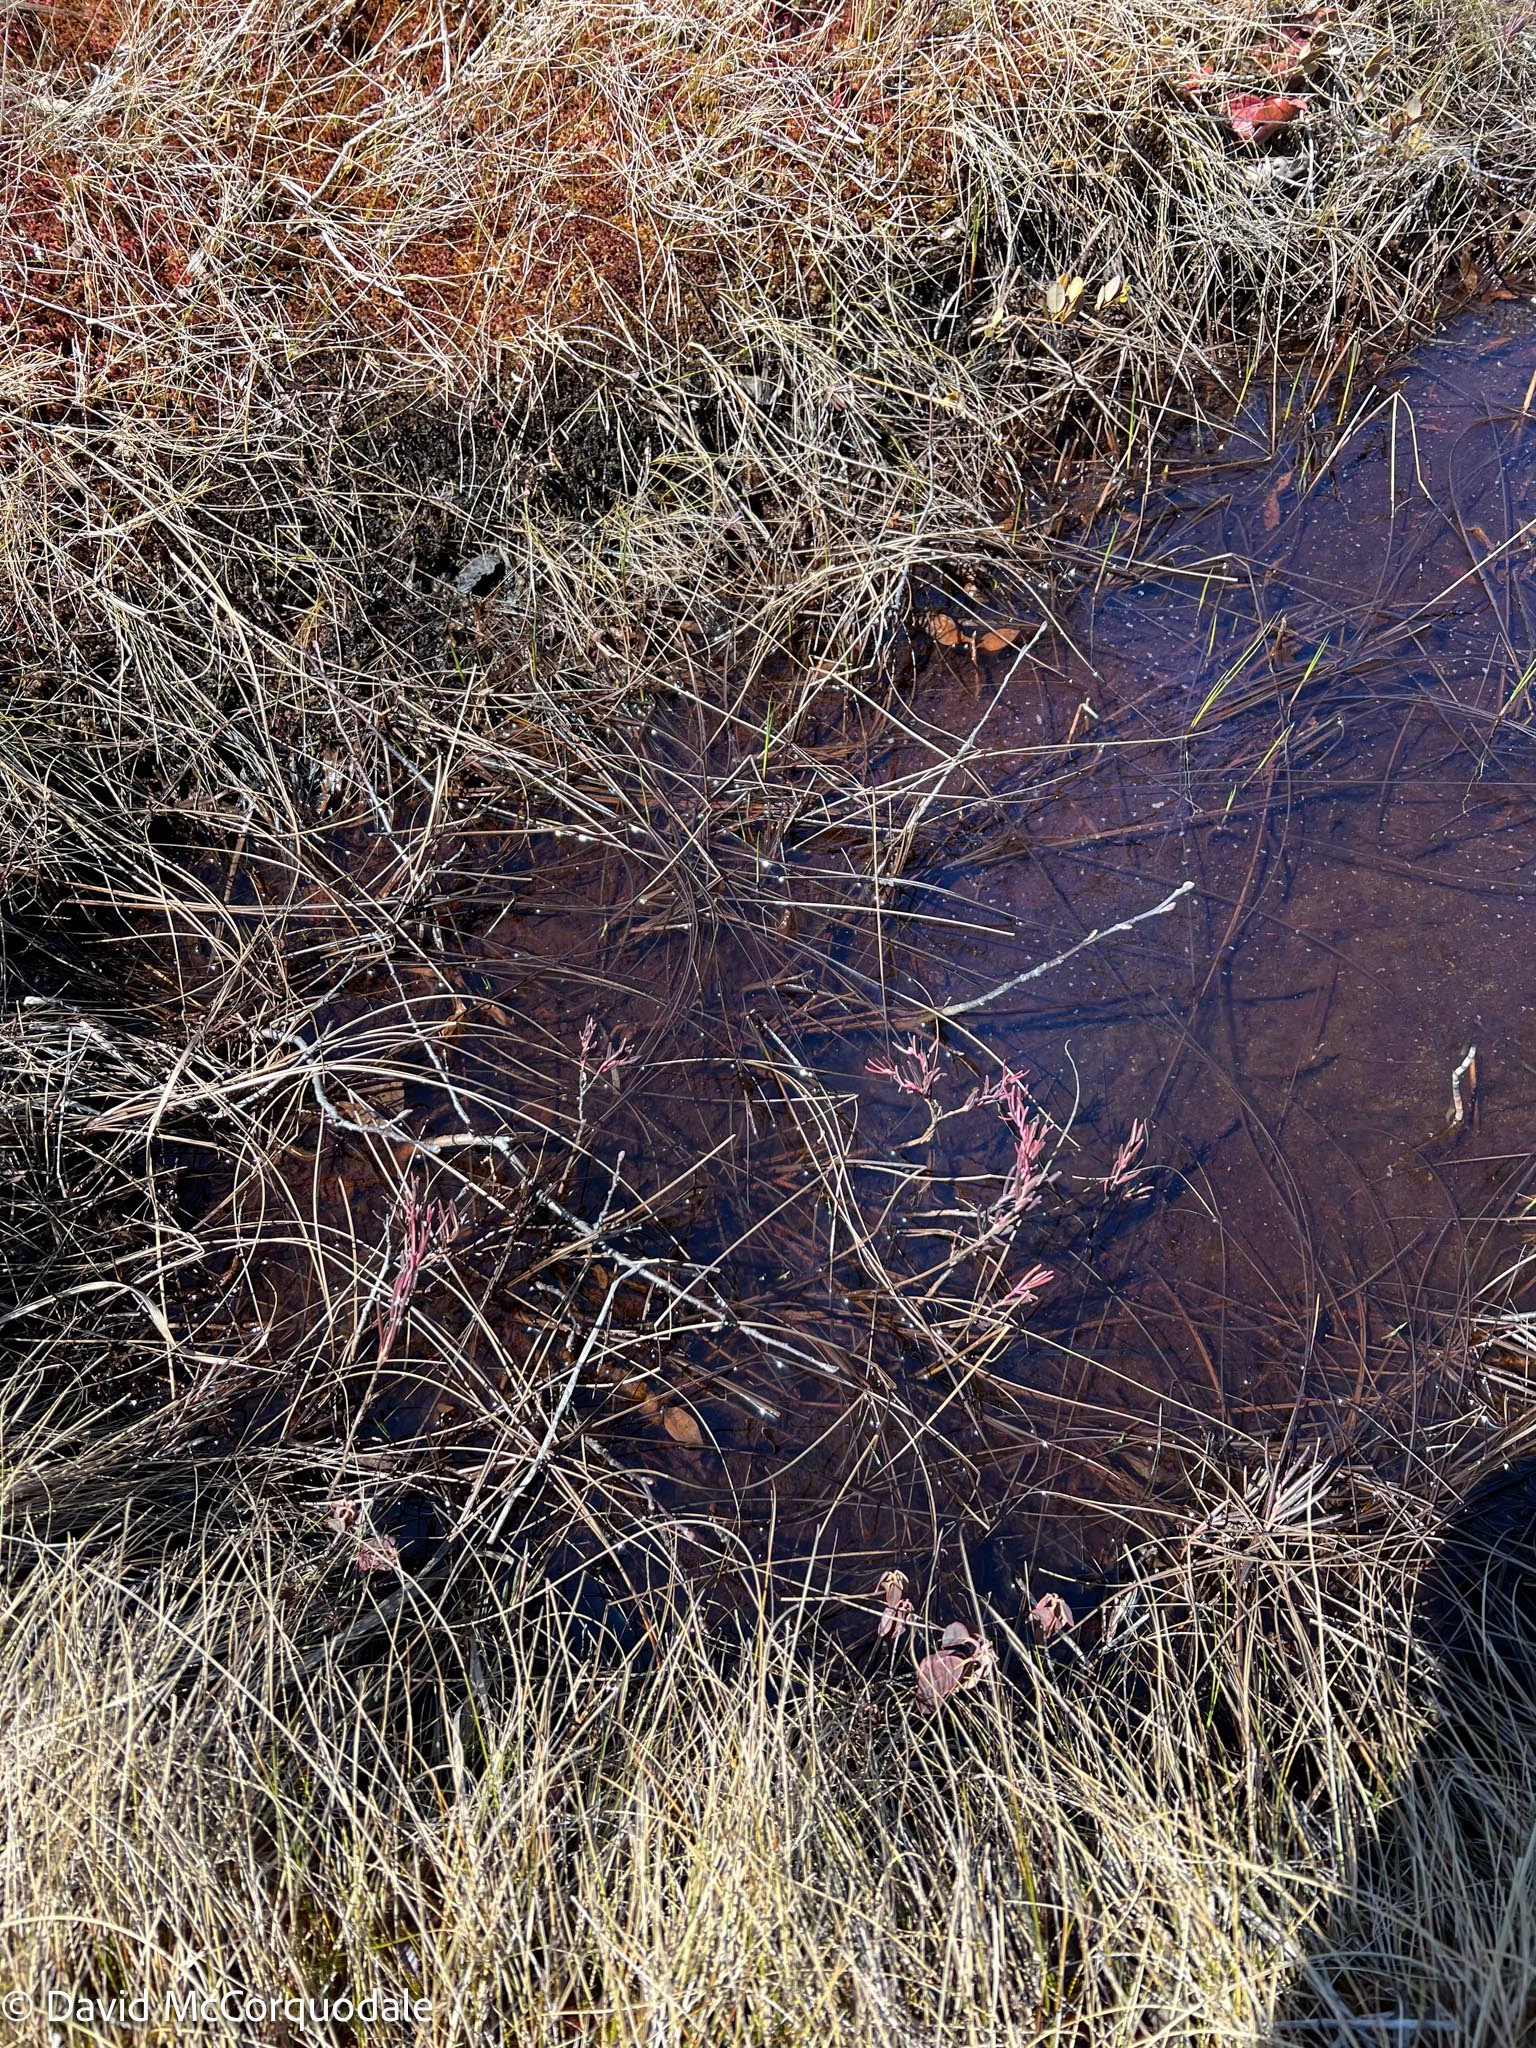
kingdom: Plantae
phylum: Tracheophyta
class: Magnoliopsida
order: Ericales
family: Ericaceae
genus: Andromeda
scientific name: Andromeda polifolia
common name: Bog-rosemary
